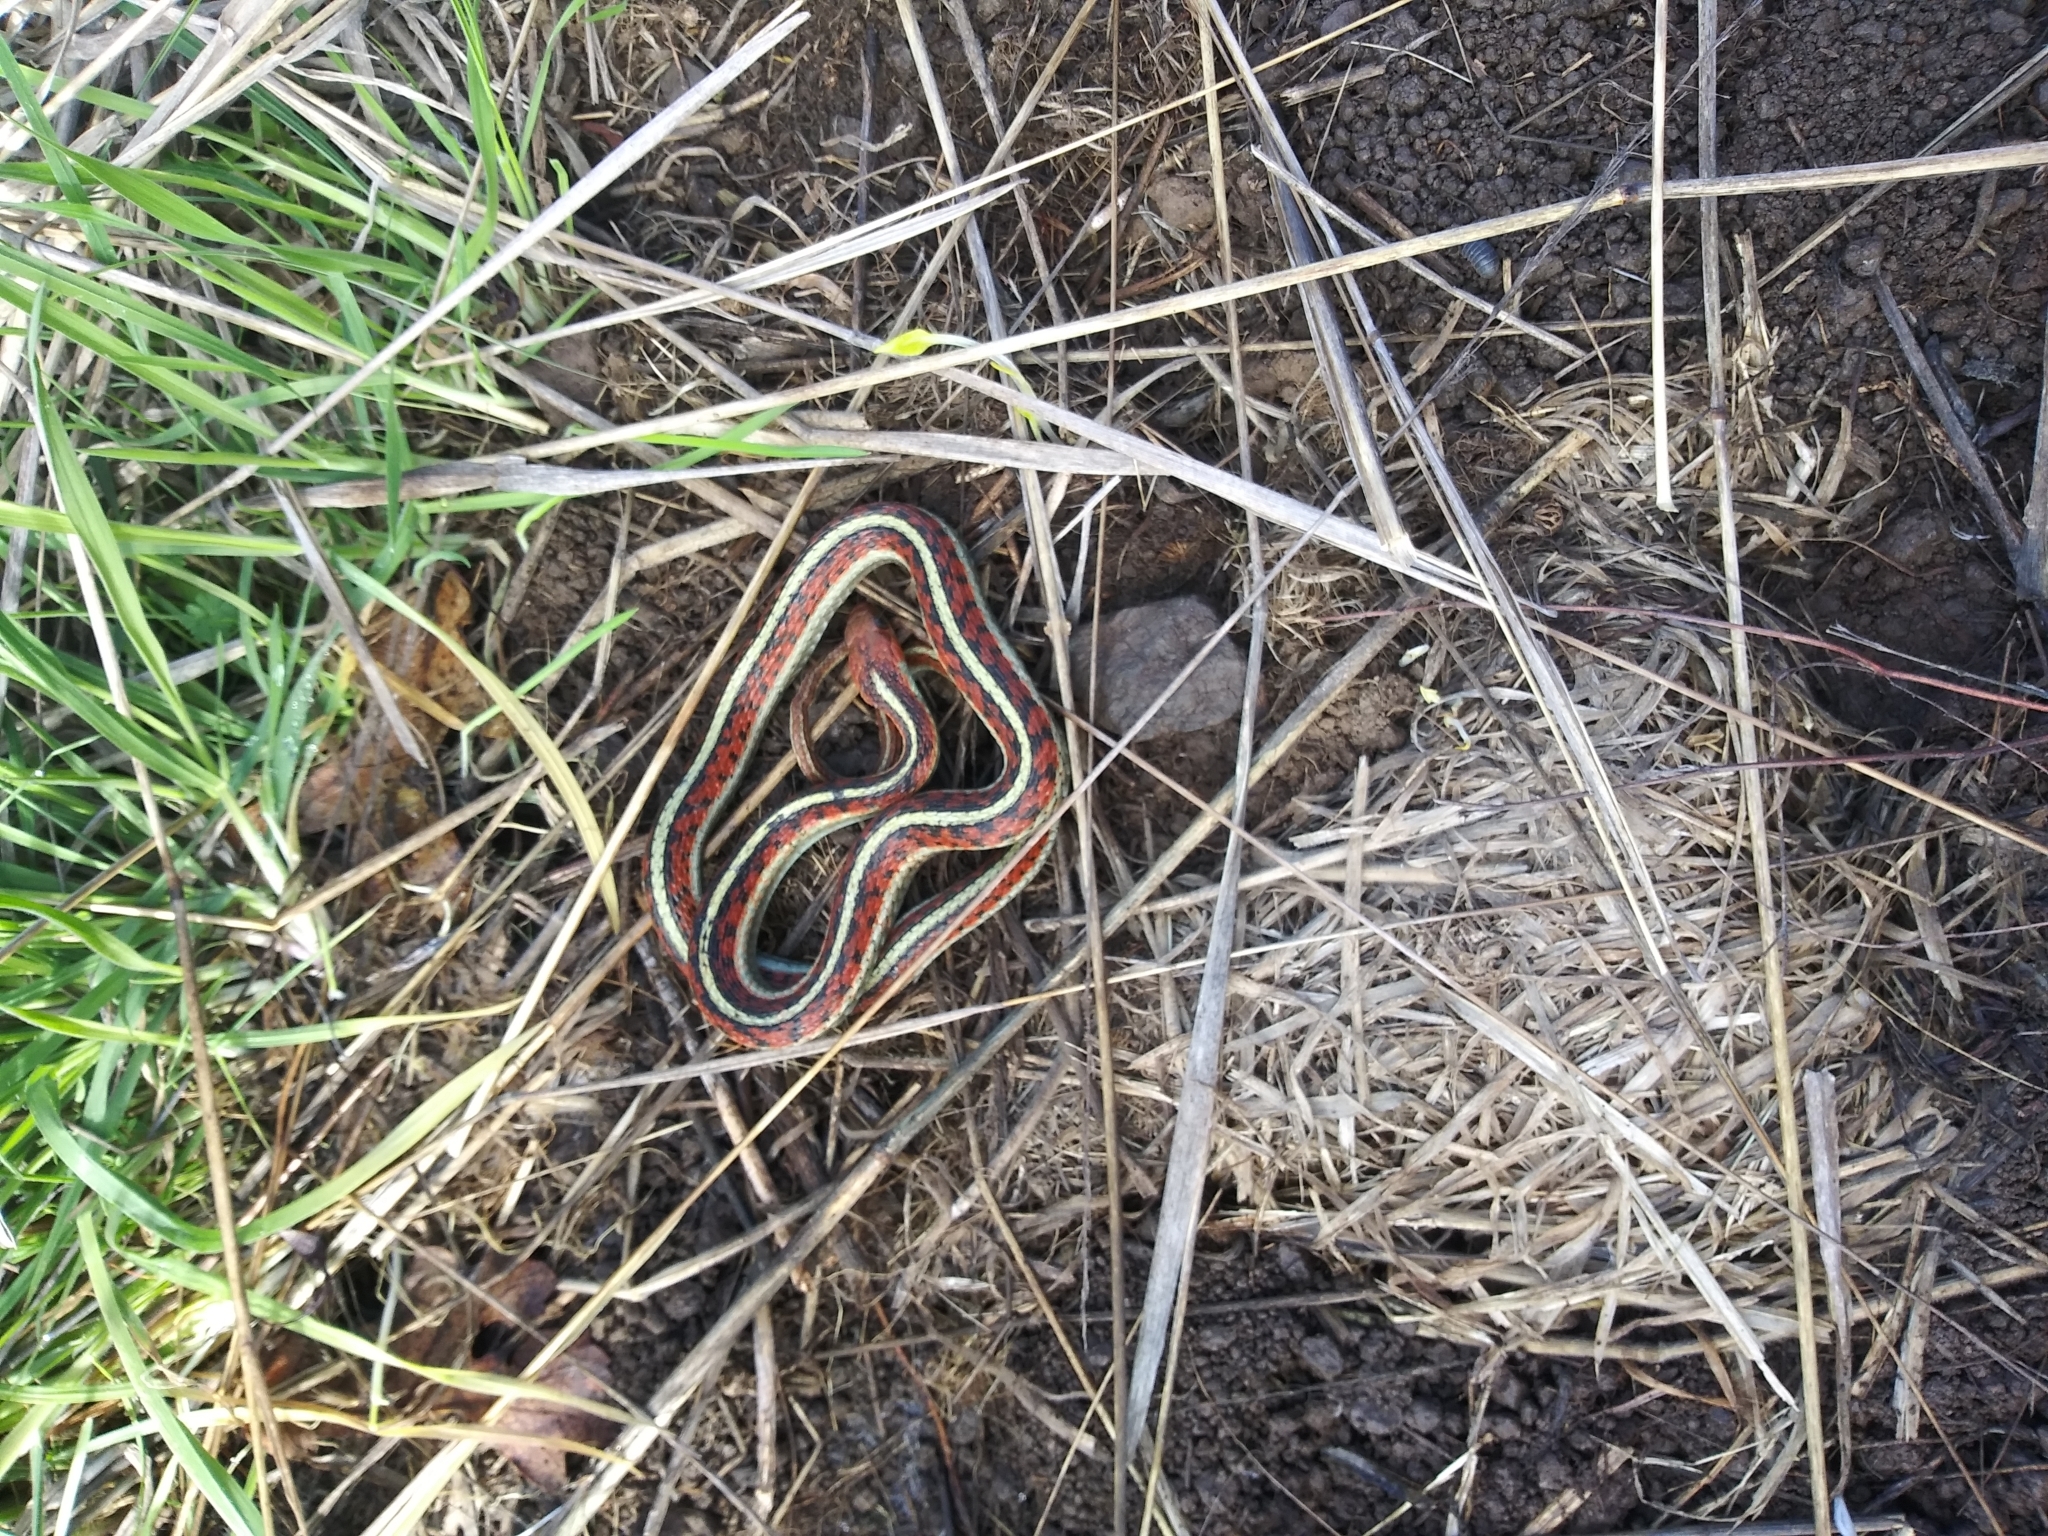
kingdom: Animalia
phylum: Chordata
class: Squamata
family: Colubridae
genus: Thamnophis
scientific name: Thamnophis sirtalis
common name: Common garter snake
